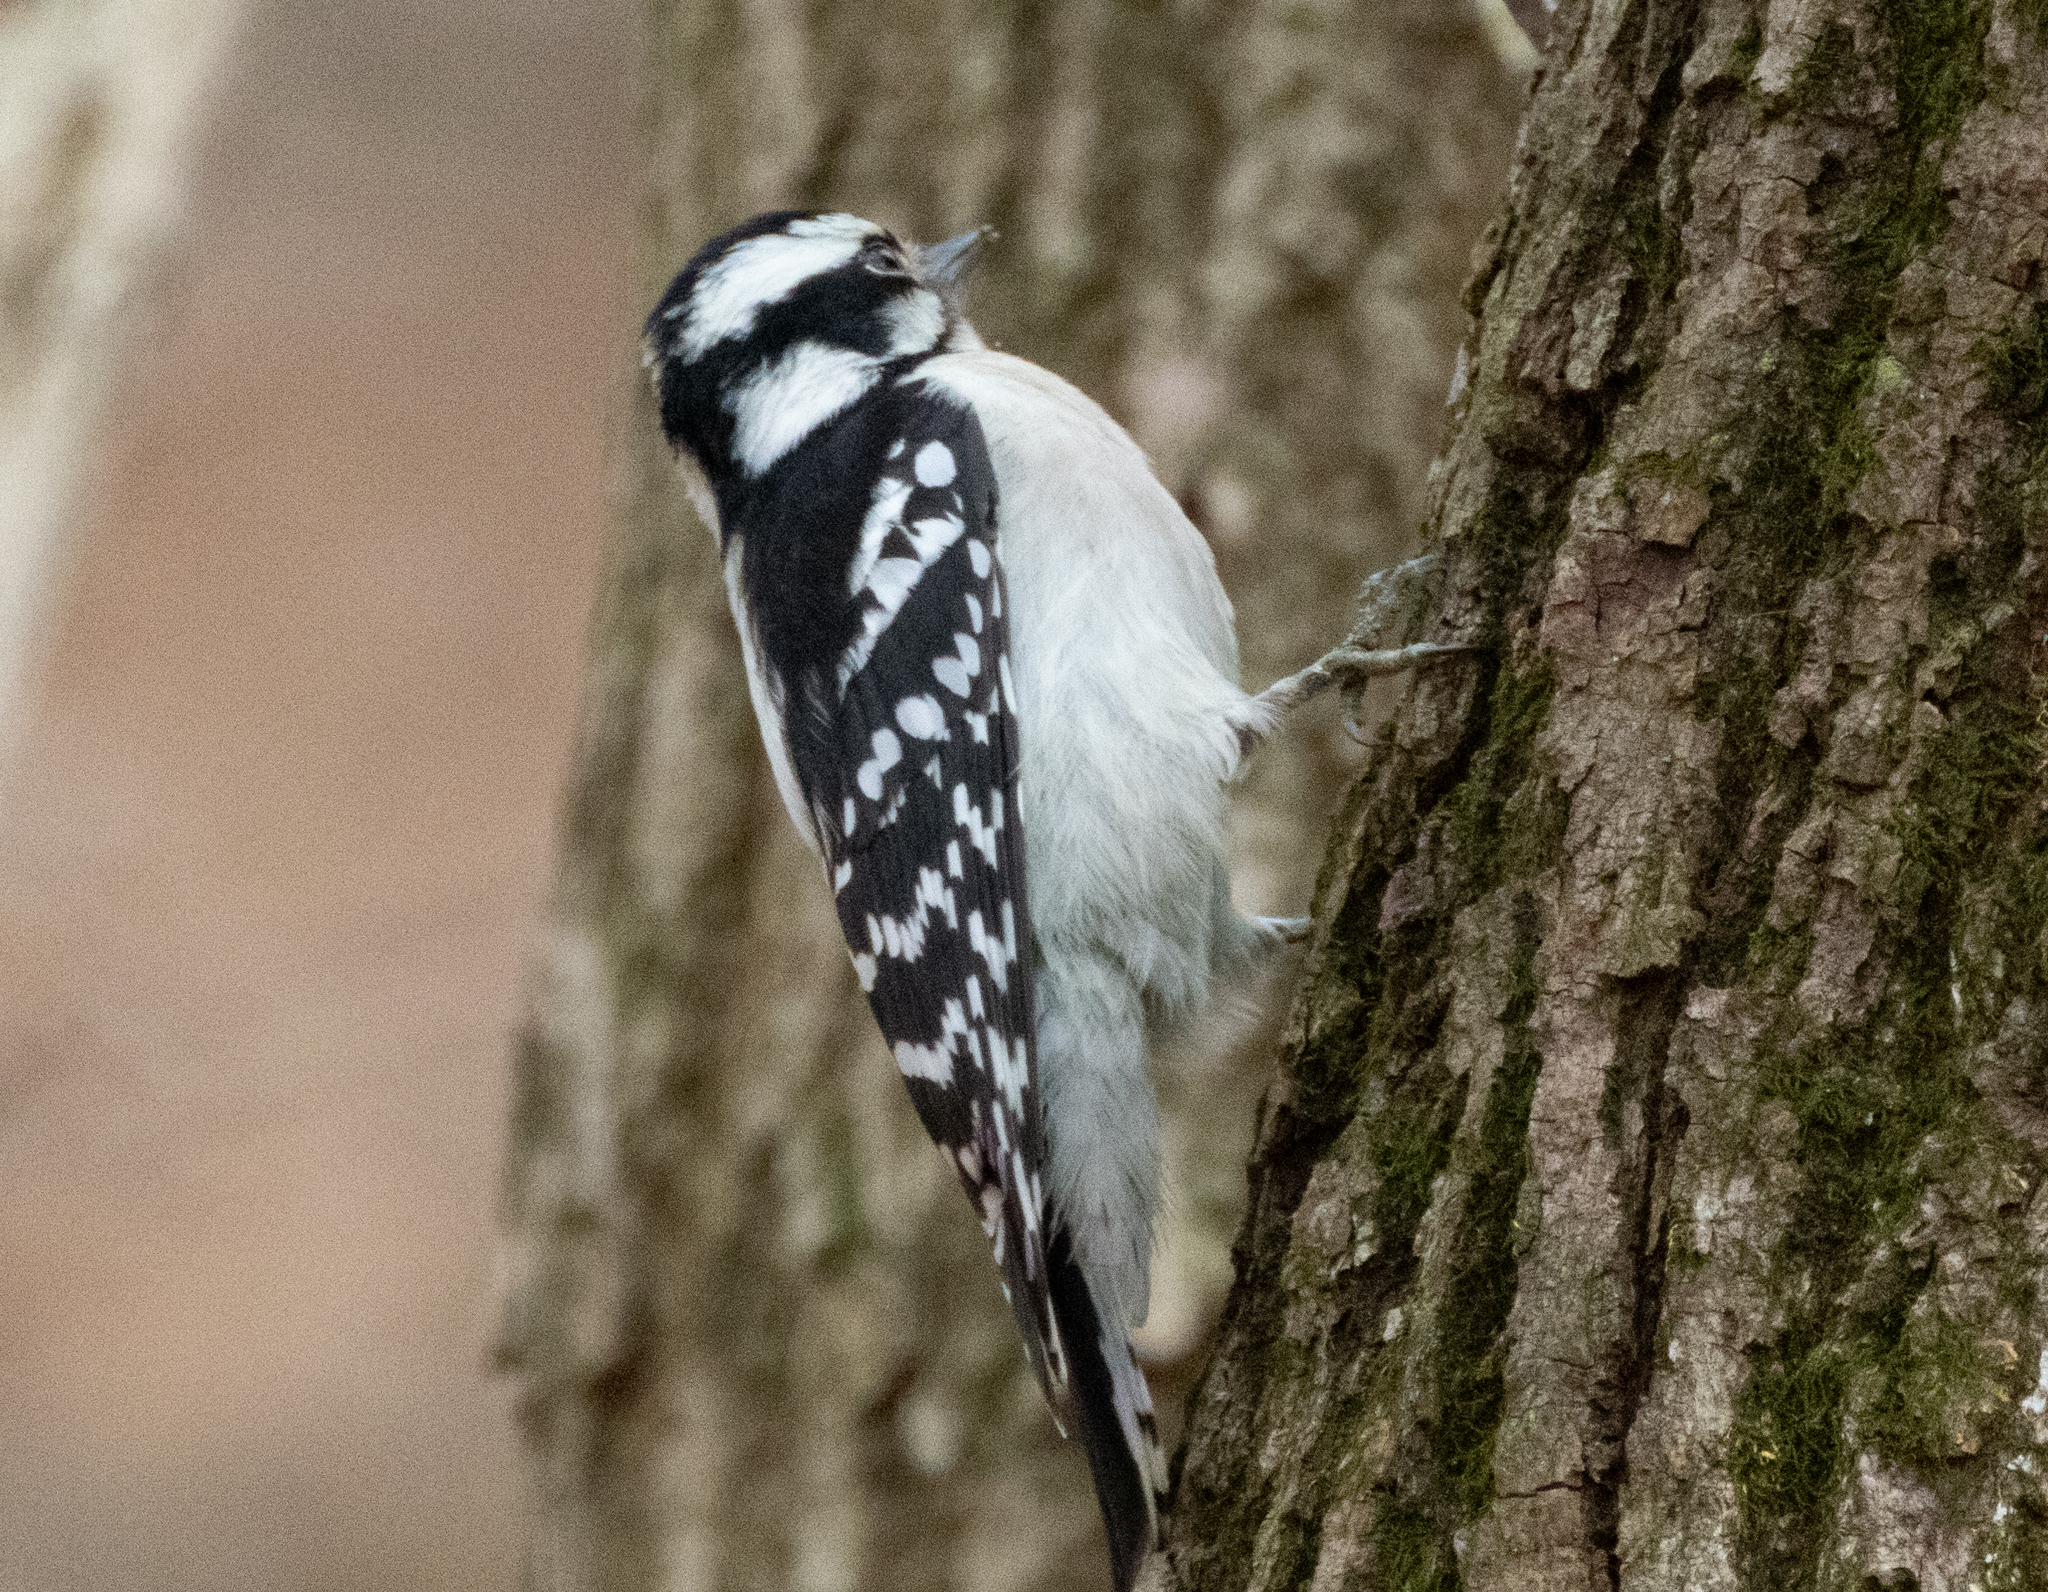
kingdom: Animalia
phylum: Chordata
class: Aves
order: Piciformes
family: Picidae
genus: Dryobates
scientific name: Dryobates pubescens
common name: Downy woodpecker
